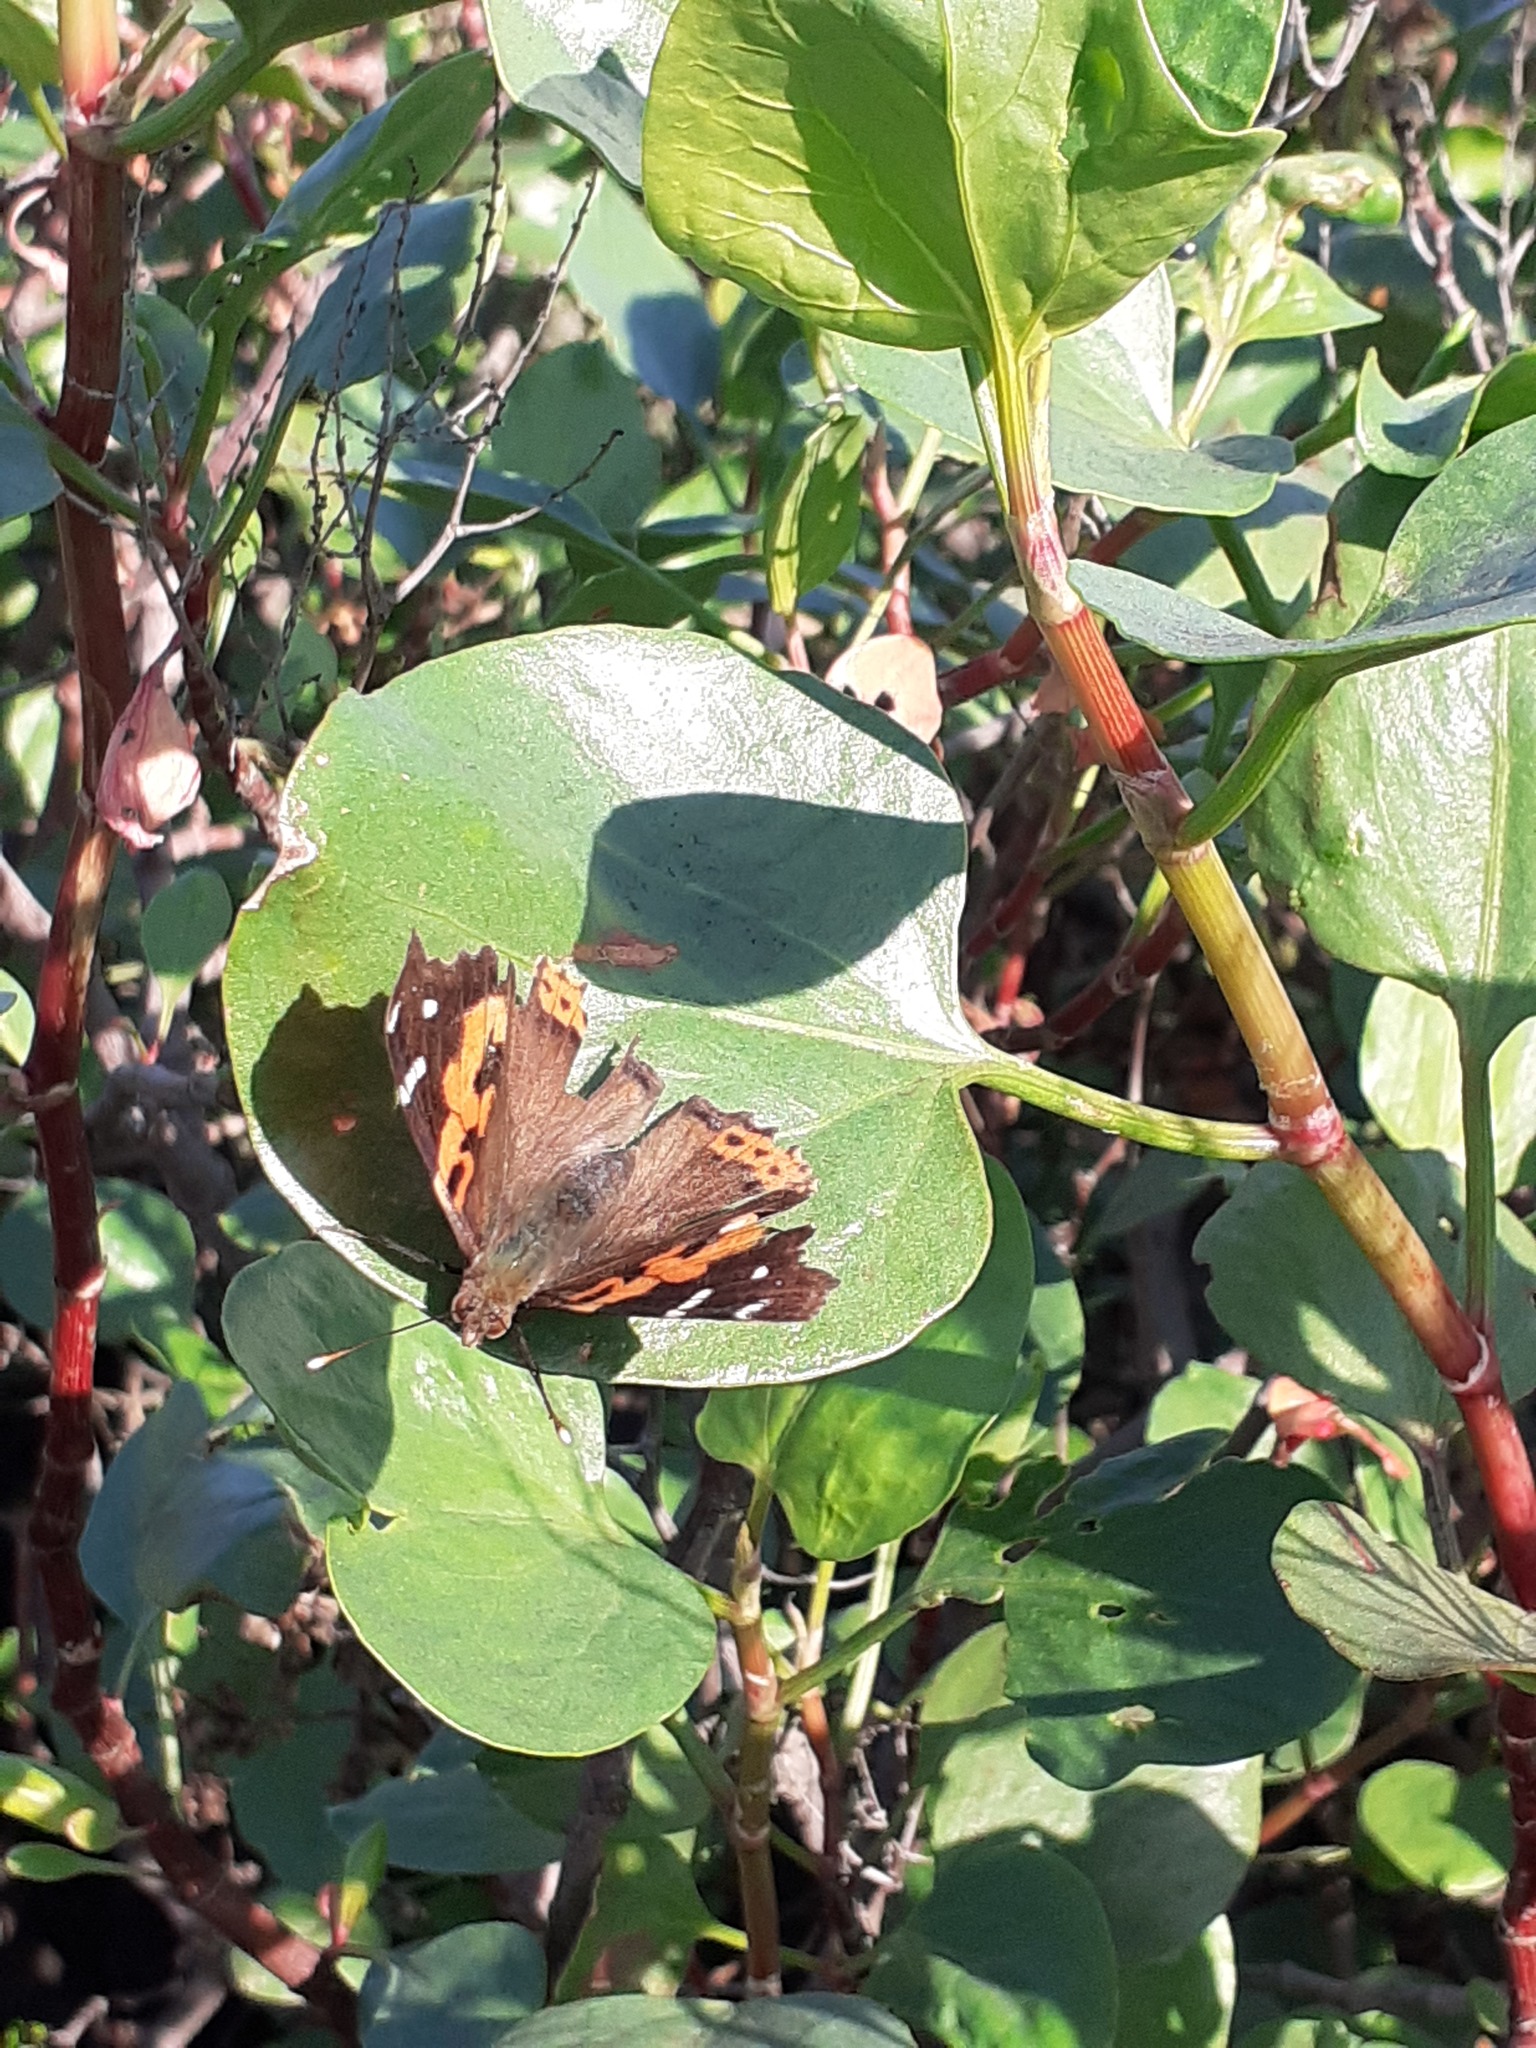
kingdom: Animalia
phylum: Arthropoda
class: Insecta
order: Lepidoptera
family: Nymphalidae
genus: Vanessa
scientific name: Vanessa vulcania
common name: Canary red admiral
